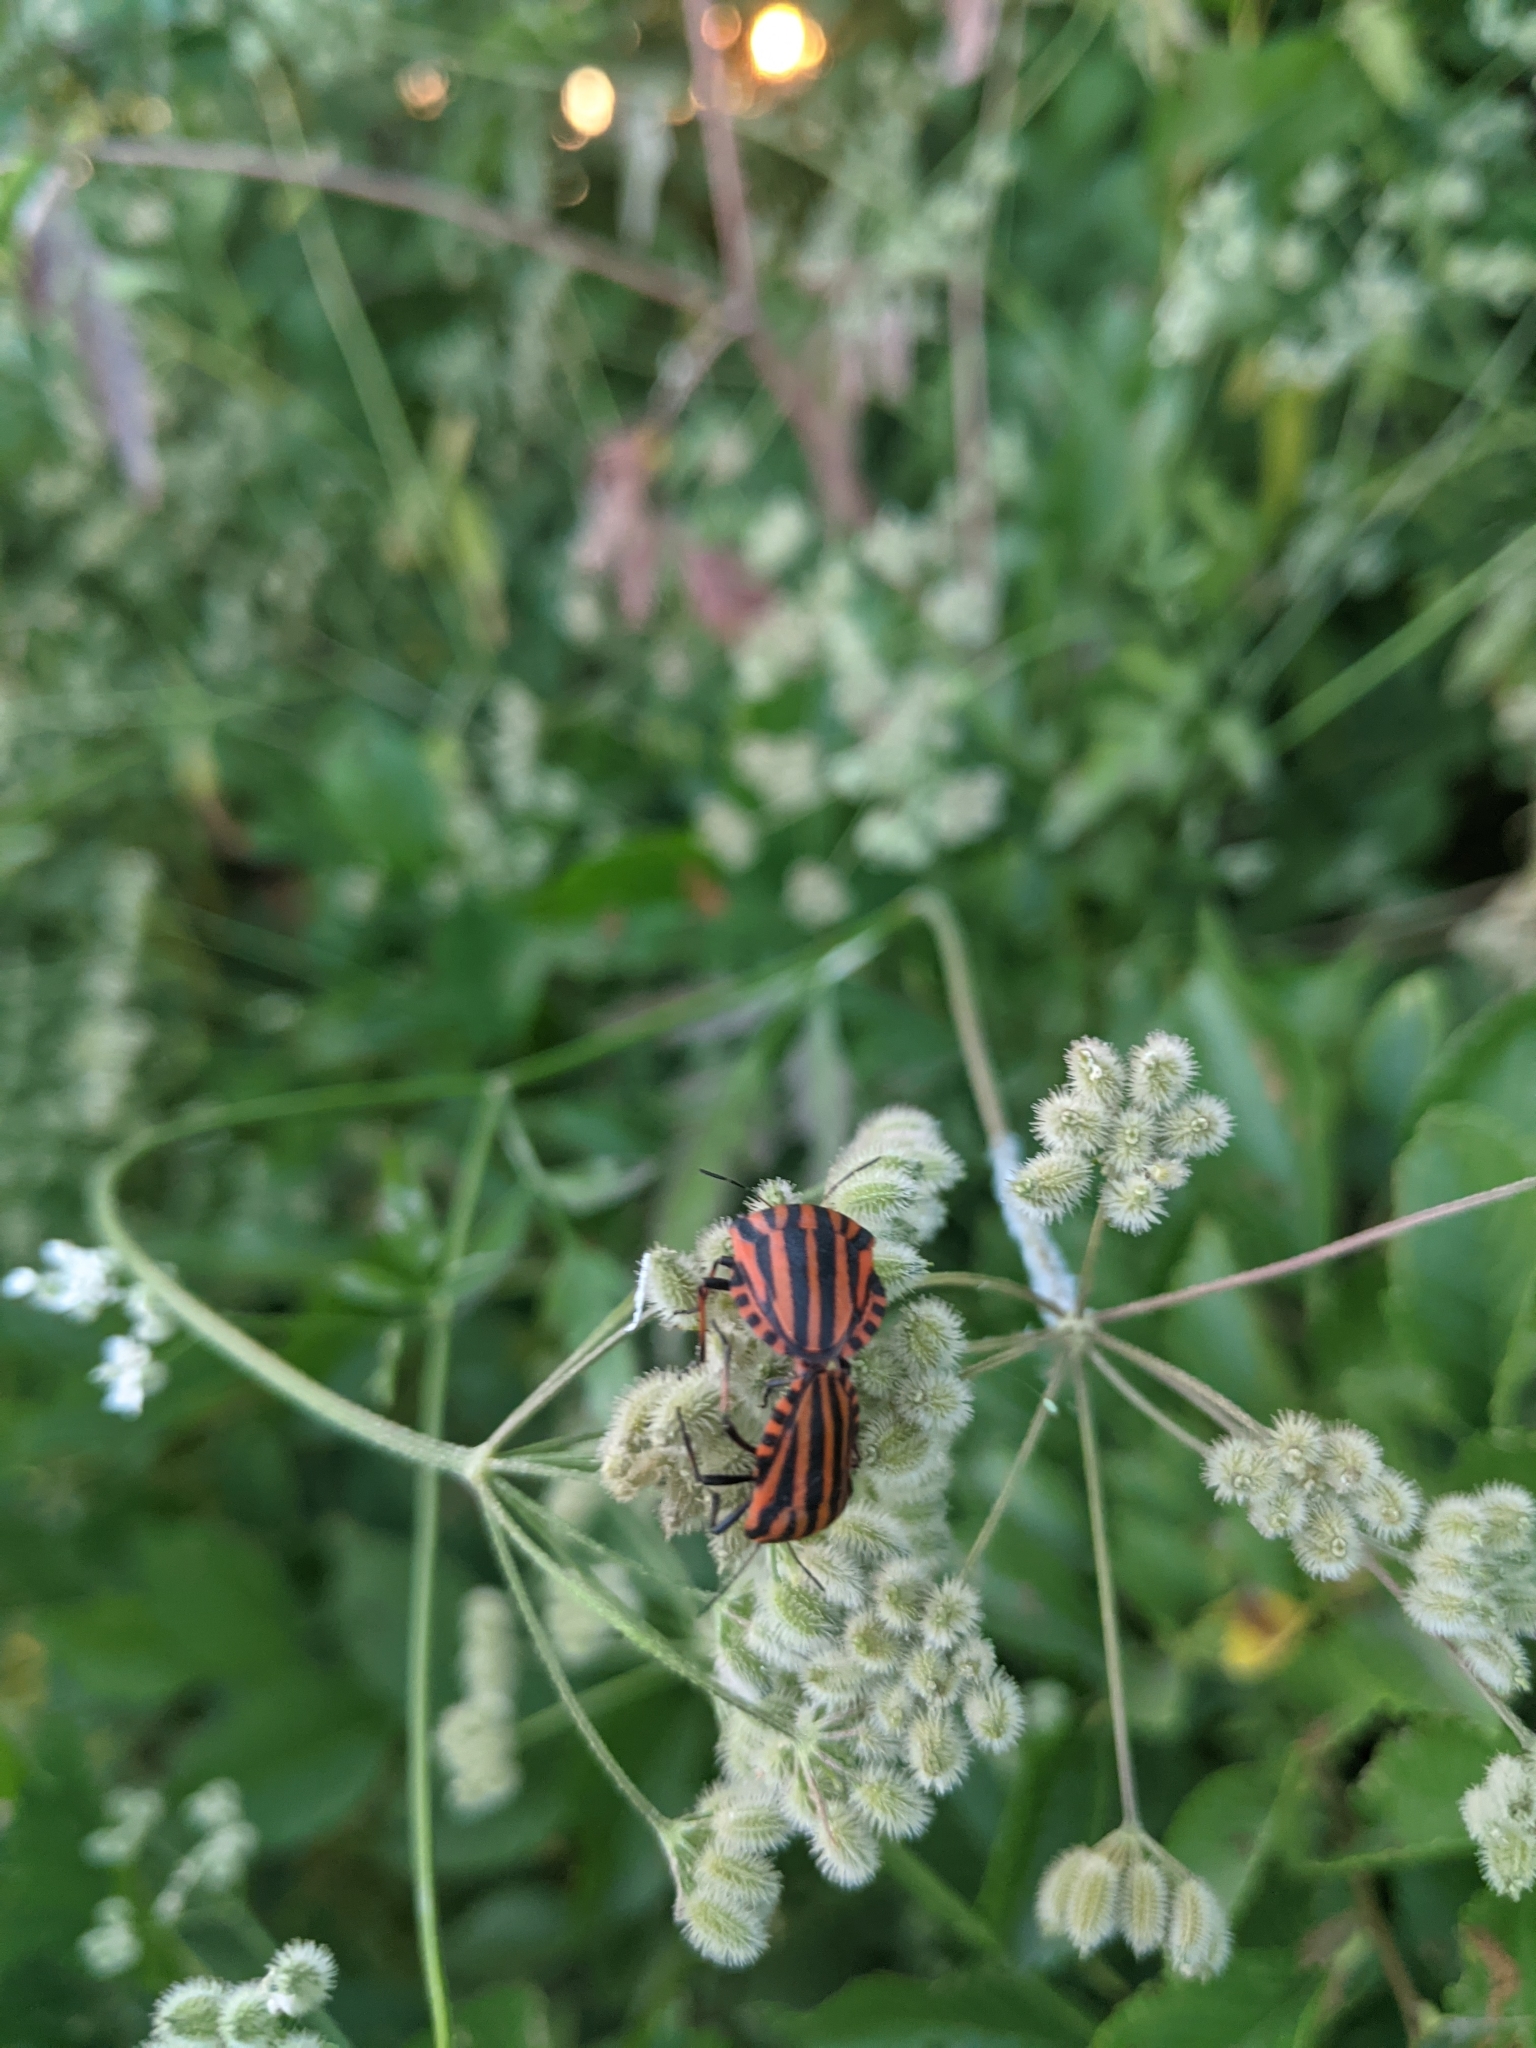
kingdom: Animalia
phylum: Arthropoda
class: Insecta
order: Hemiptera
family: Pentatomidae
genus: Graphosoma
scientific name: Graphosoma italicum
